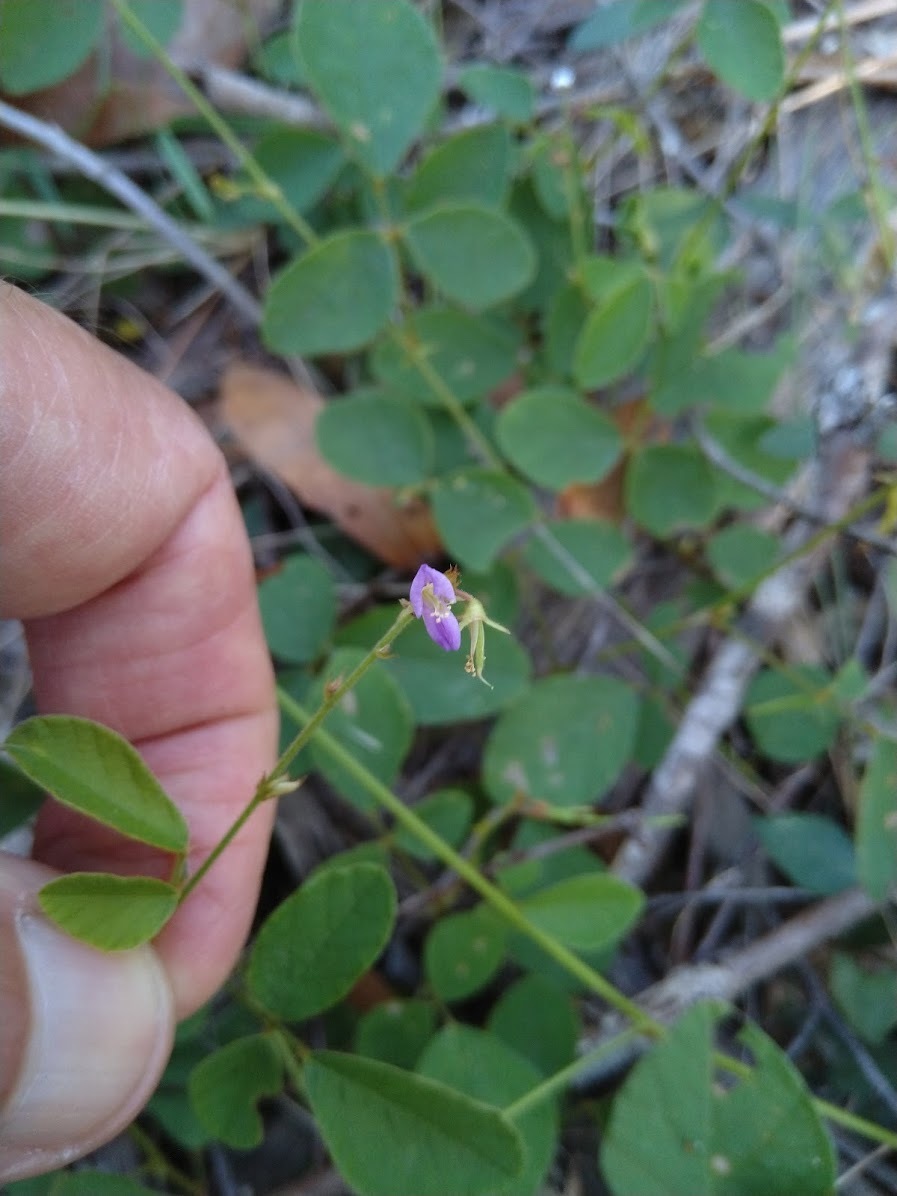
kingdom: Plantae
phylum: Tracheophyta
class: Magnoliopsida
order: Fabales
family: Fabaceae
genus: Maekawaea
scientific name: Maekawaea rhytidophylla
